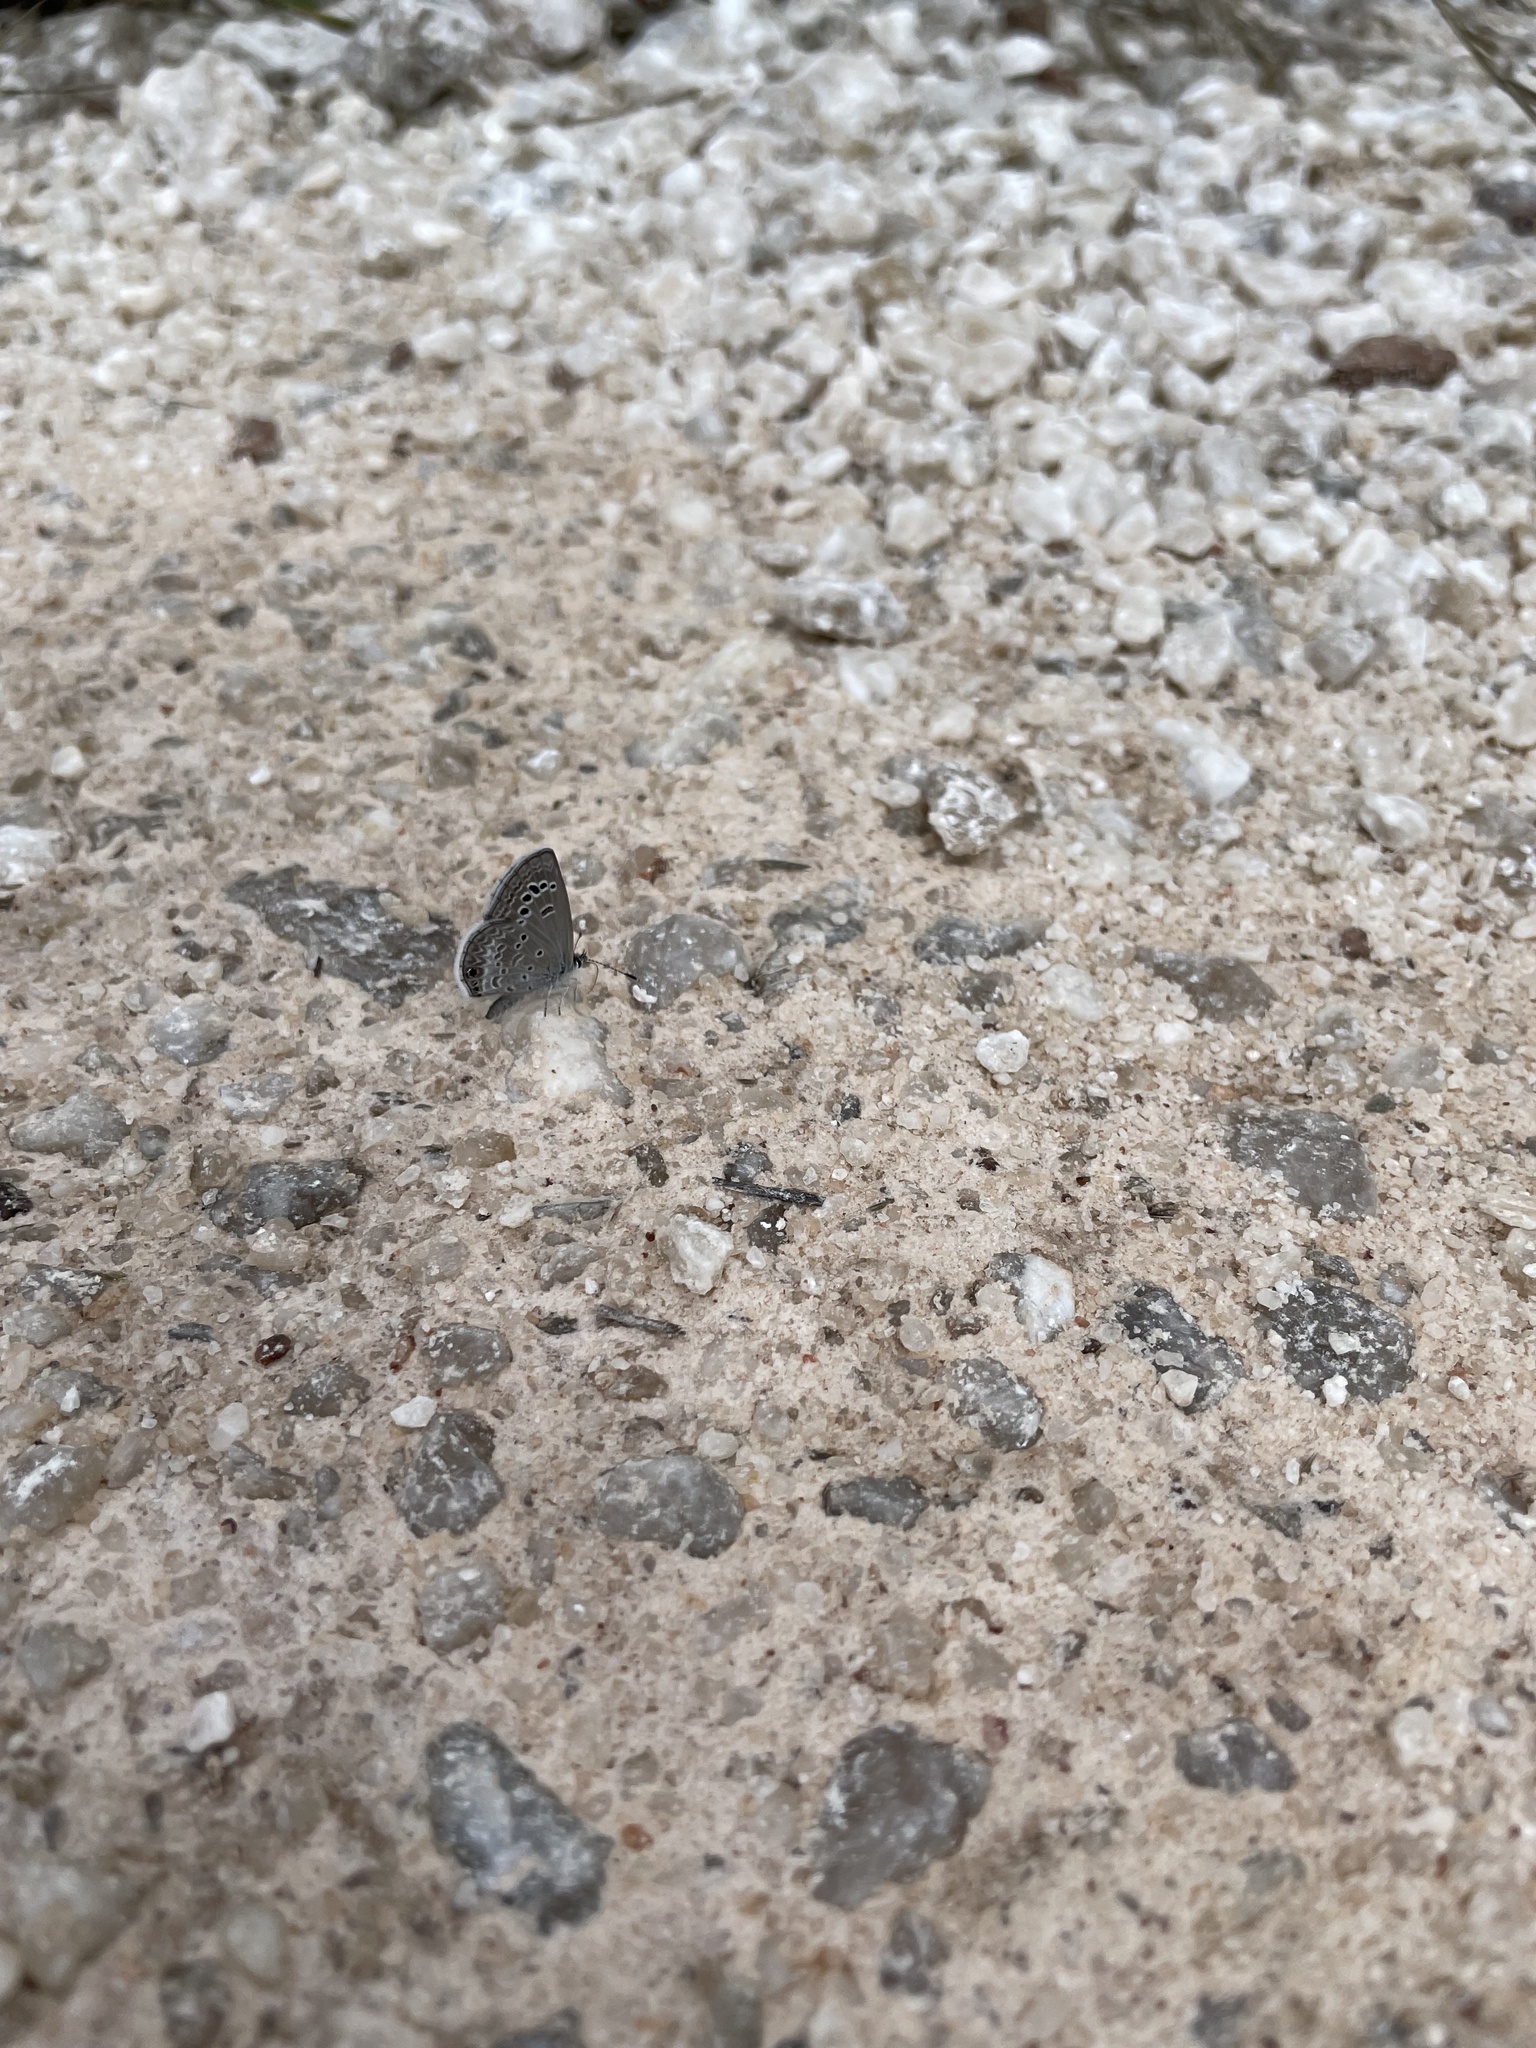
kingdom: Animalia
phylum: Arthropoda
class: Insecta
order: Lepidoptera
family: Lycaenidae
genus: Echinargus
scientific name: Echinargus isola
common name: Reakirt's blue
